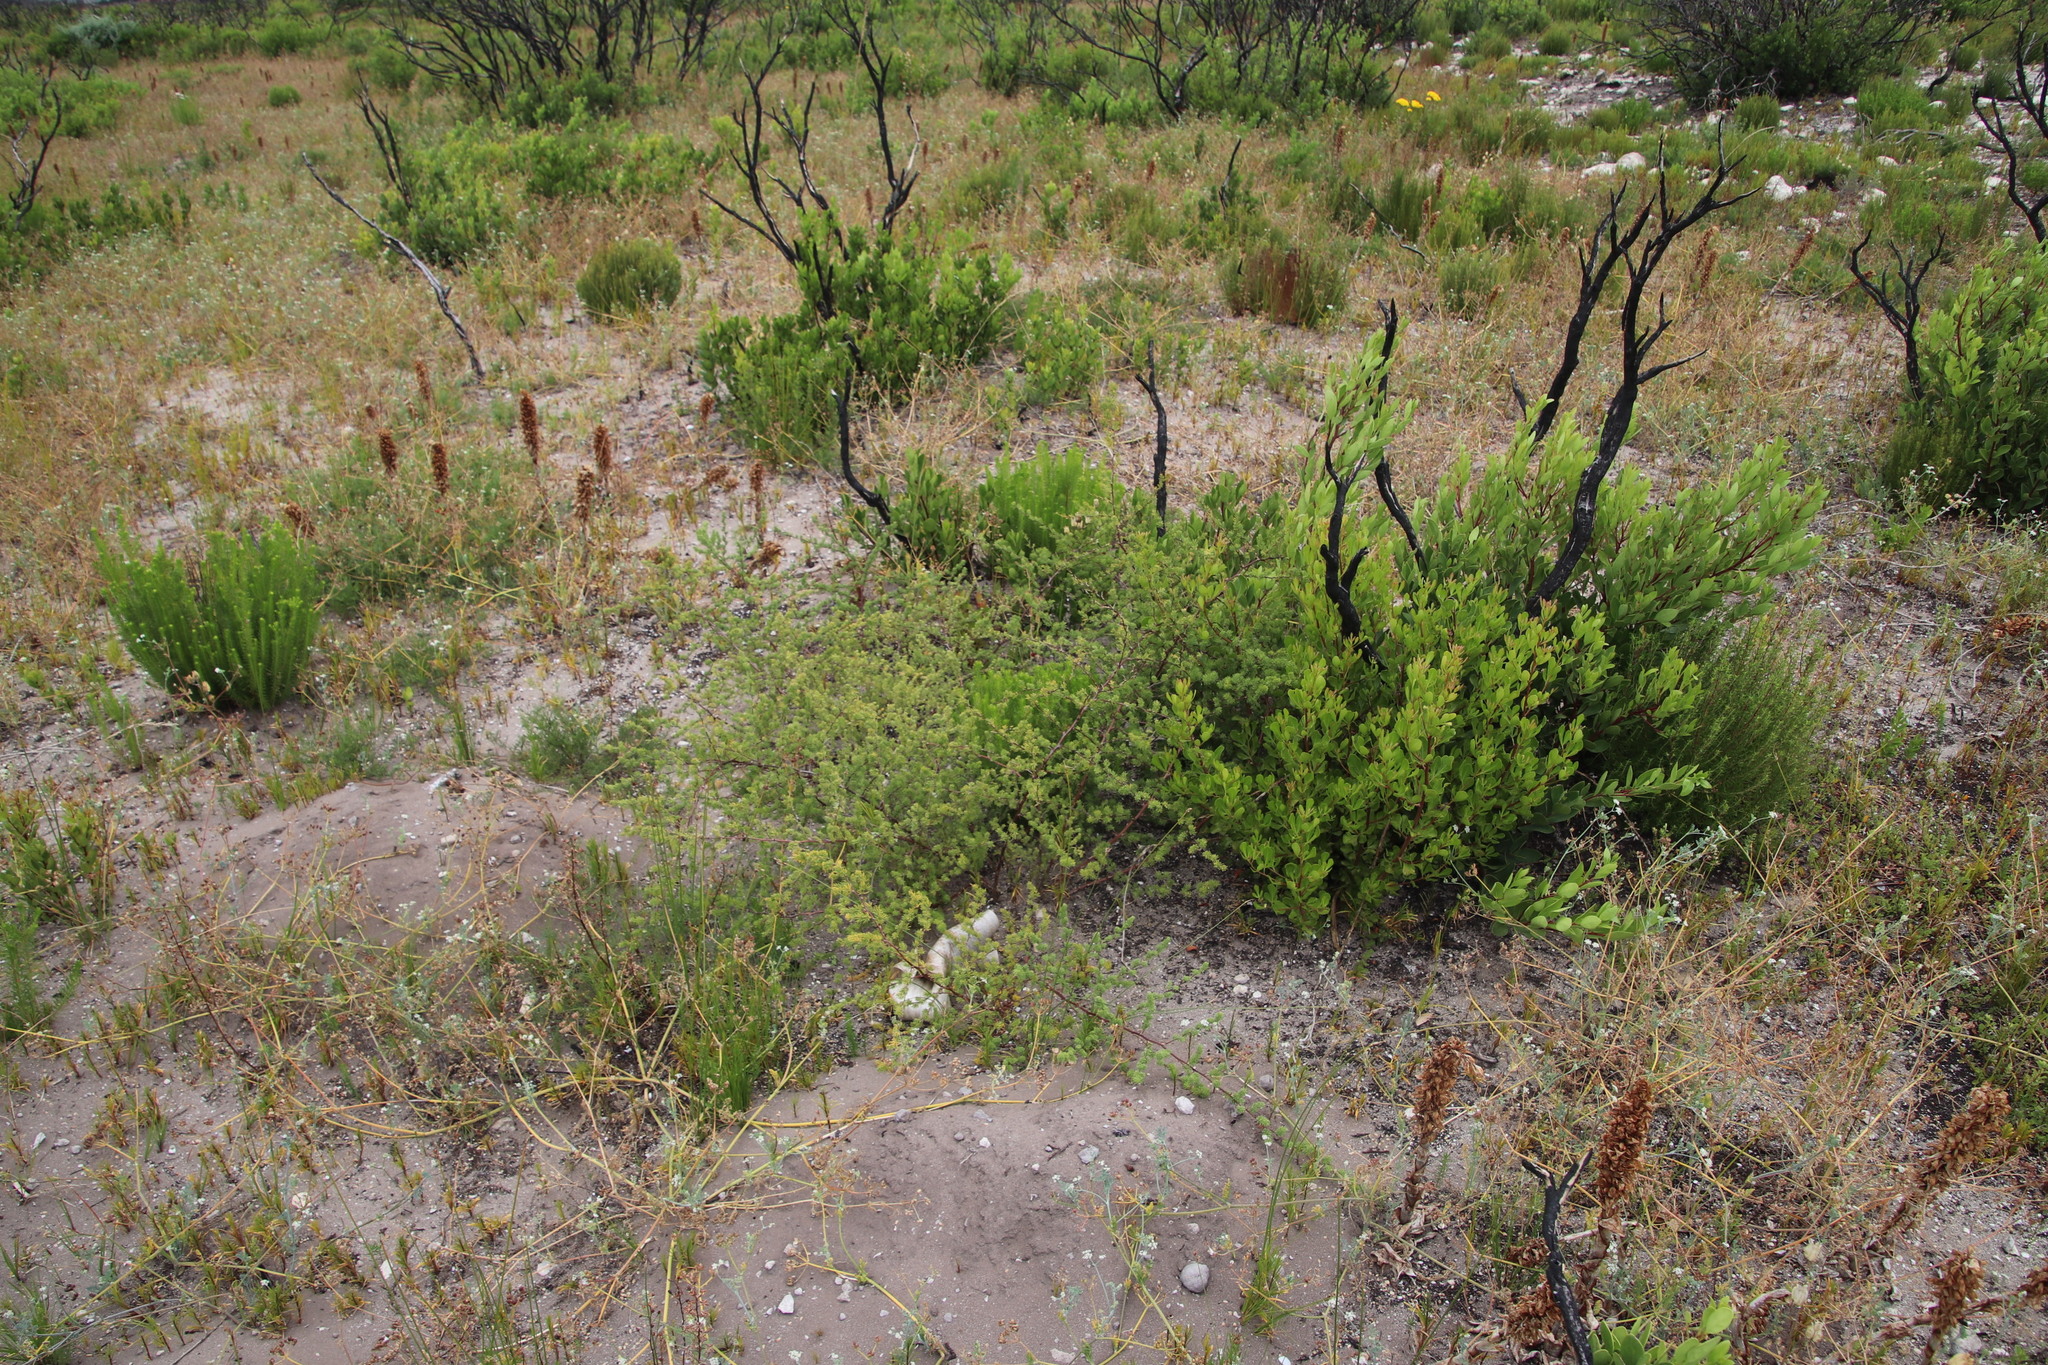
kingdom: Plantae
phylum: Tracheophyta
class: Liliopsida
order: Asparagales
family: Asparagaceae
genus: Asparagus
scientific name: Asparagus rubicundus
